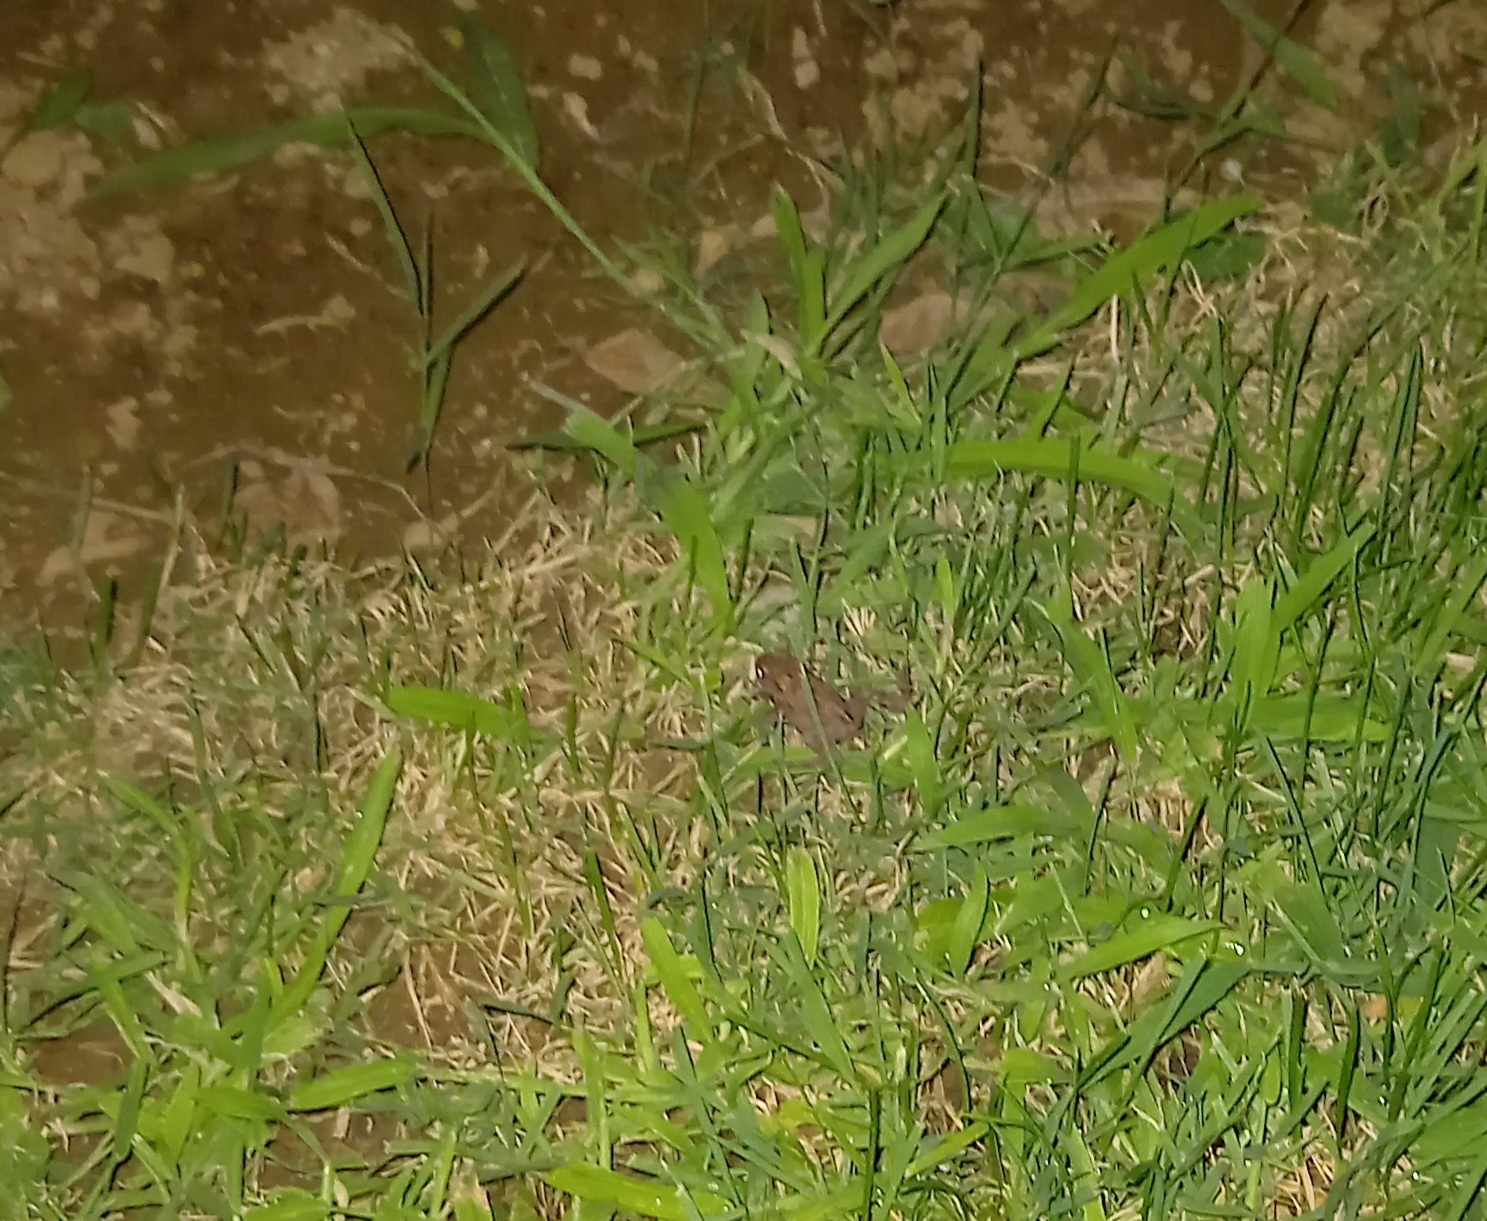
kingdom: Animalia
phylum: Chordata
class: Amphibia
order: Anura
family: Bufonidae
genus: Bufo
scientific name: Bufo bufo
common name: Common toad
